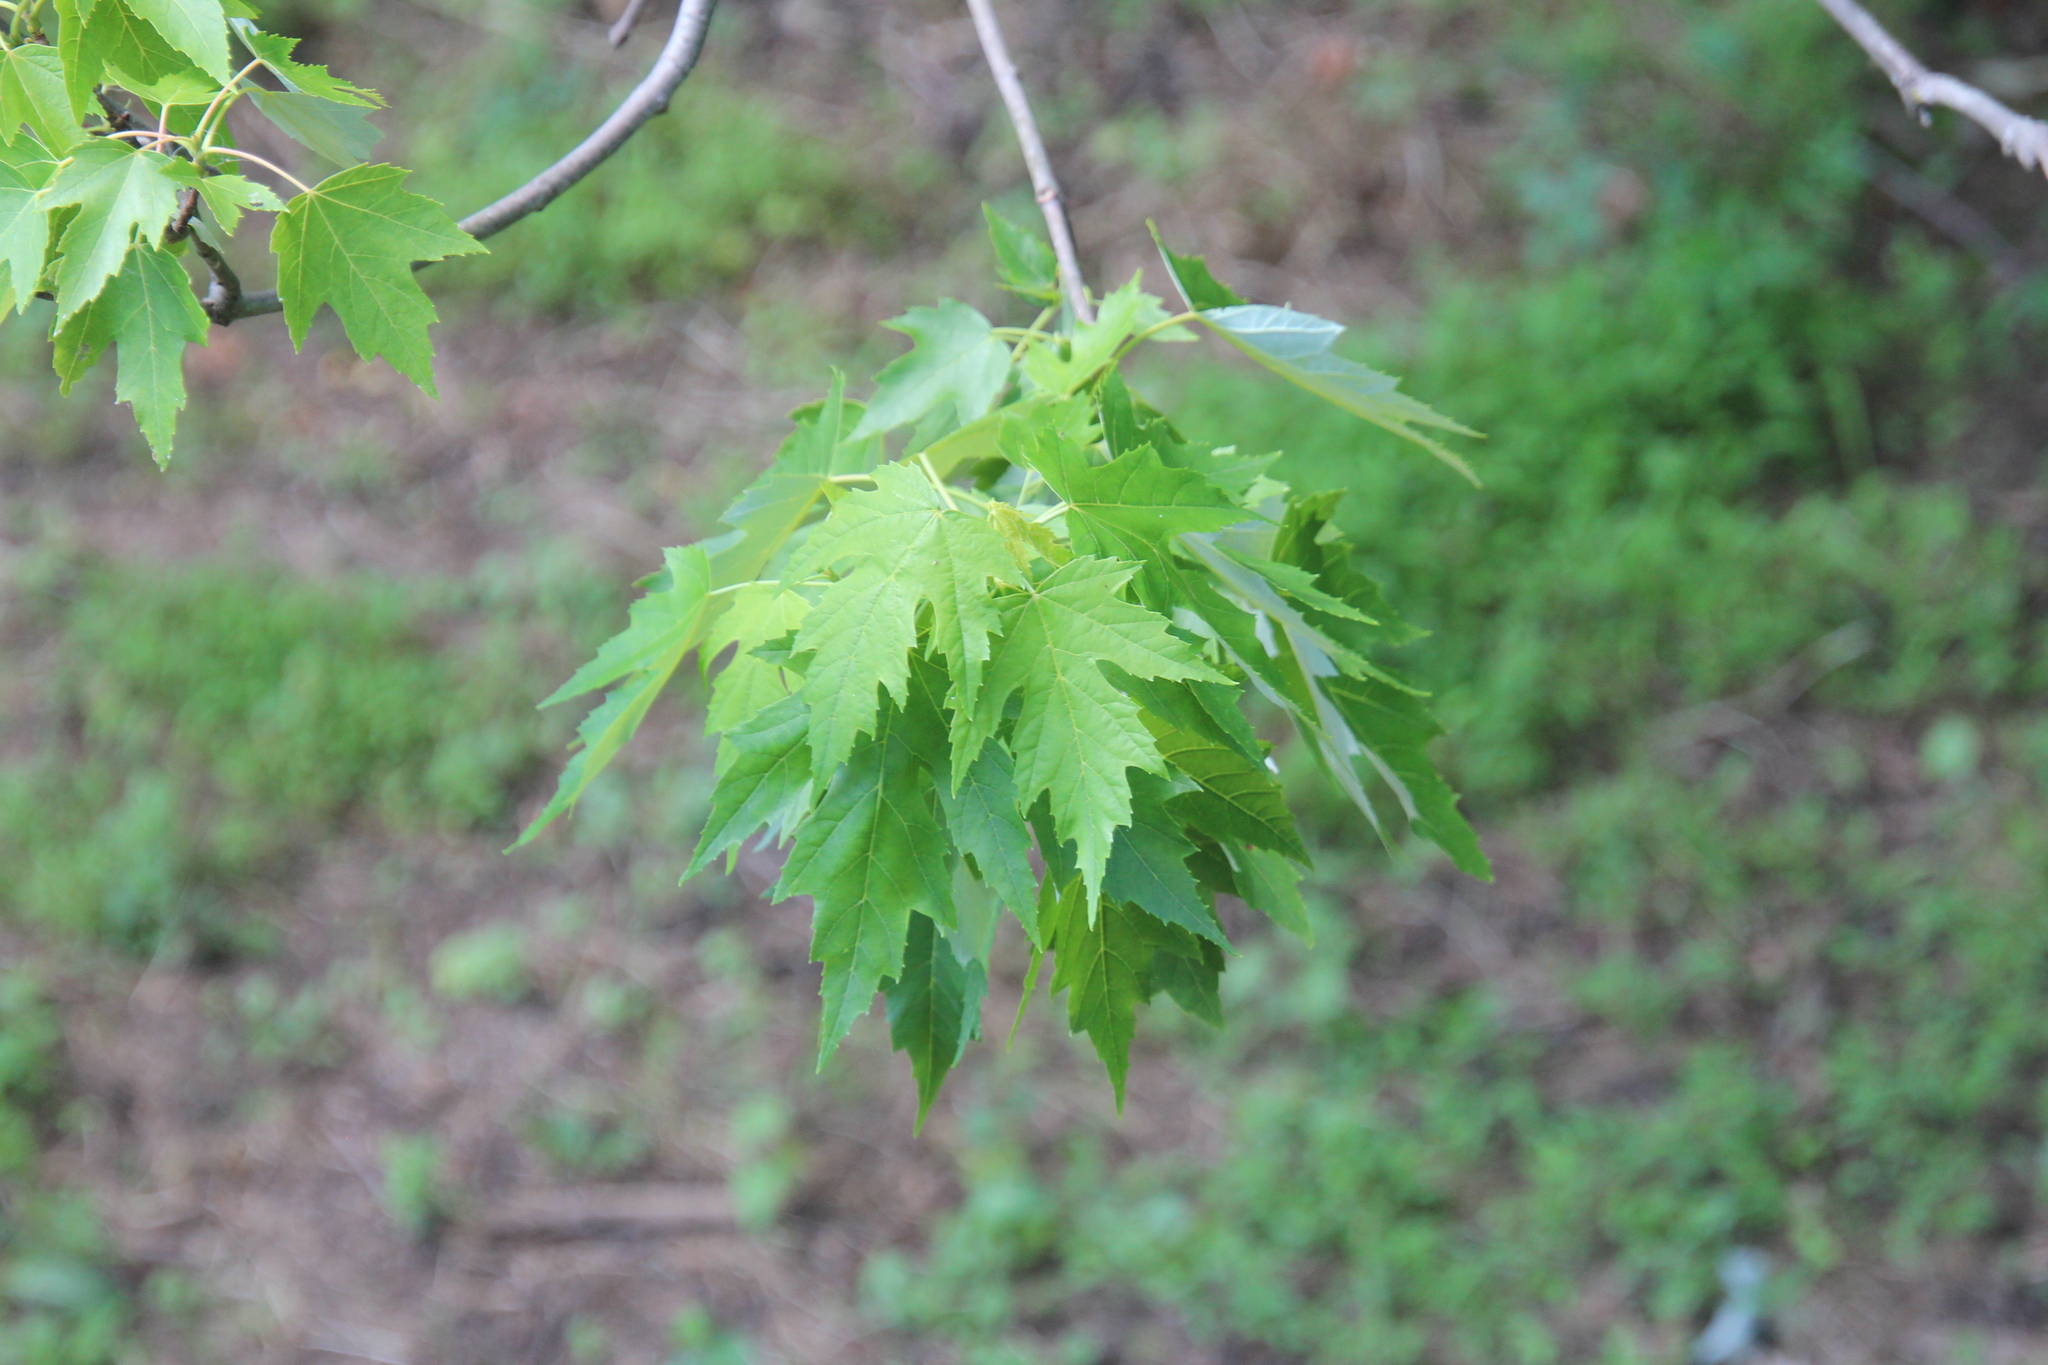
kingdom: Plantae
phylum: Tracheophyta
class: Magnoliopsida
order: Sapindales
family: Sapindaceae
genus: Acer
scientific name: Acer saccharinum
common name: Silver maple
